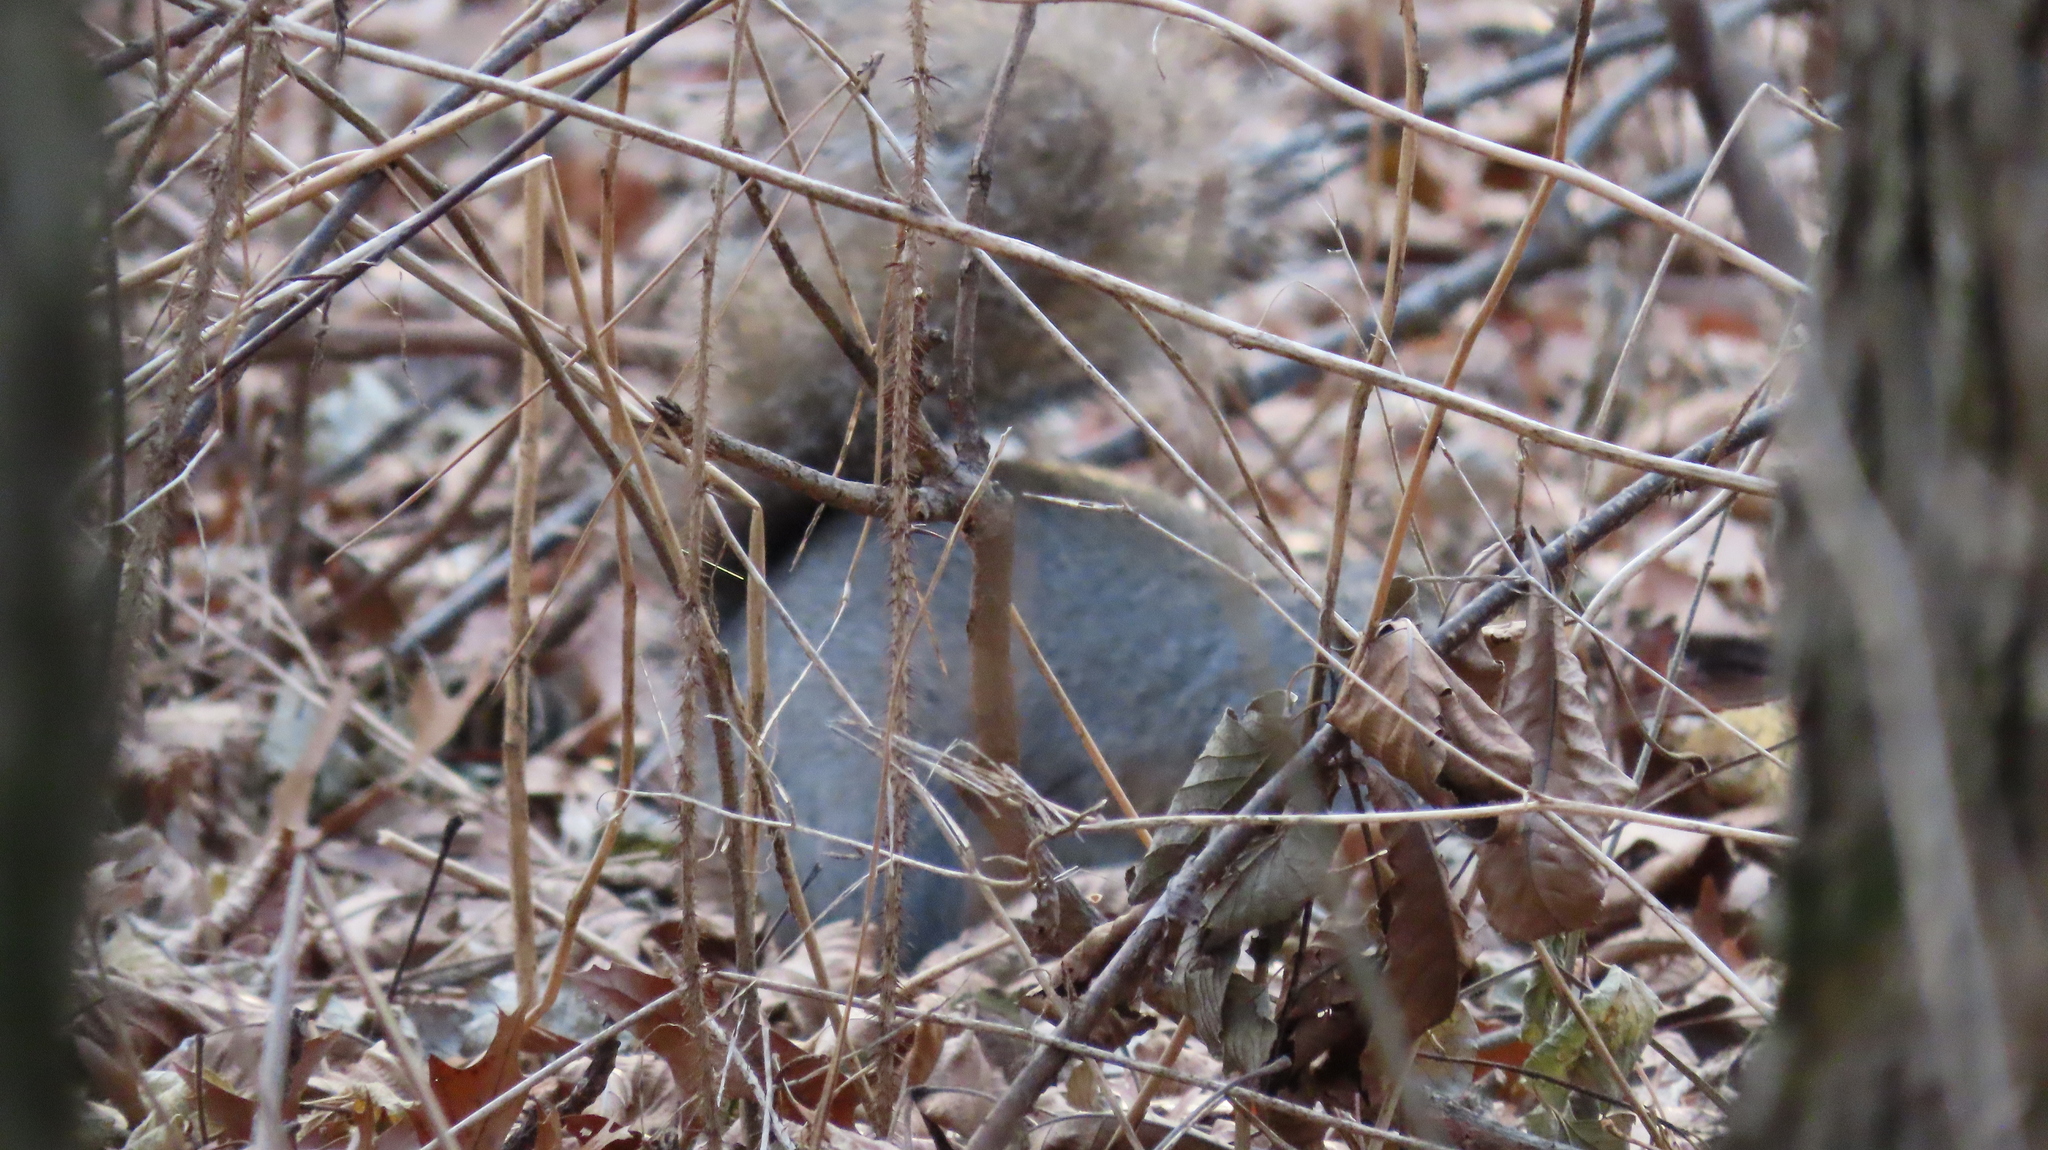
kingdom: Animalia
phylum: Chordata
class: Mammalia
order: Rodentia
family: Sciuridae
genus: Sciurus
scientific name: Sciurus carolinensis
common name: Eastern gray squirrel
